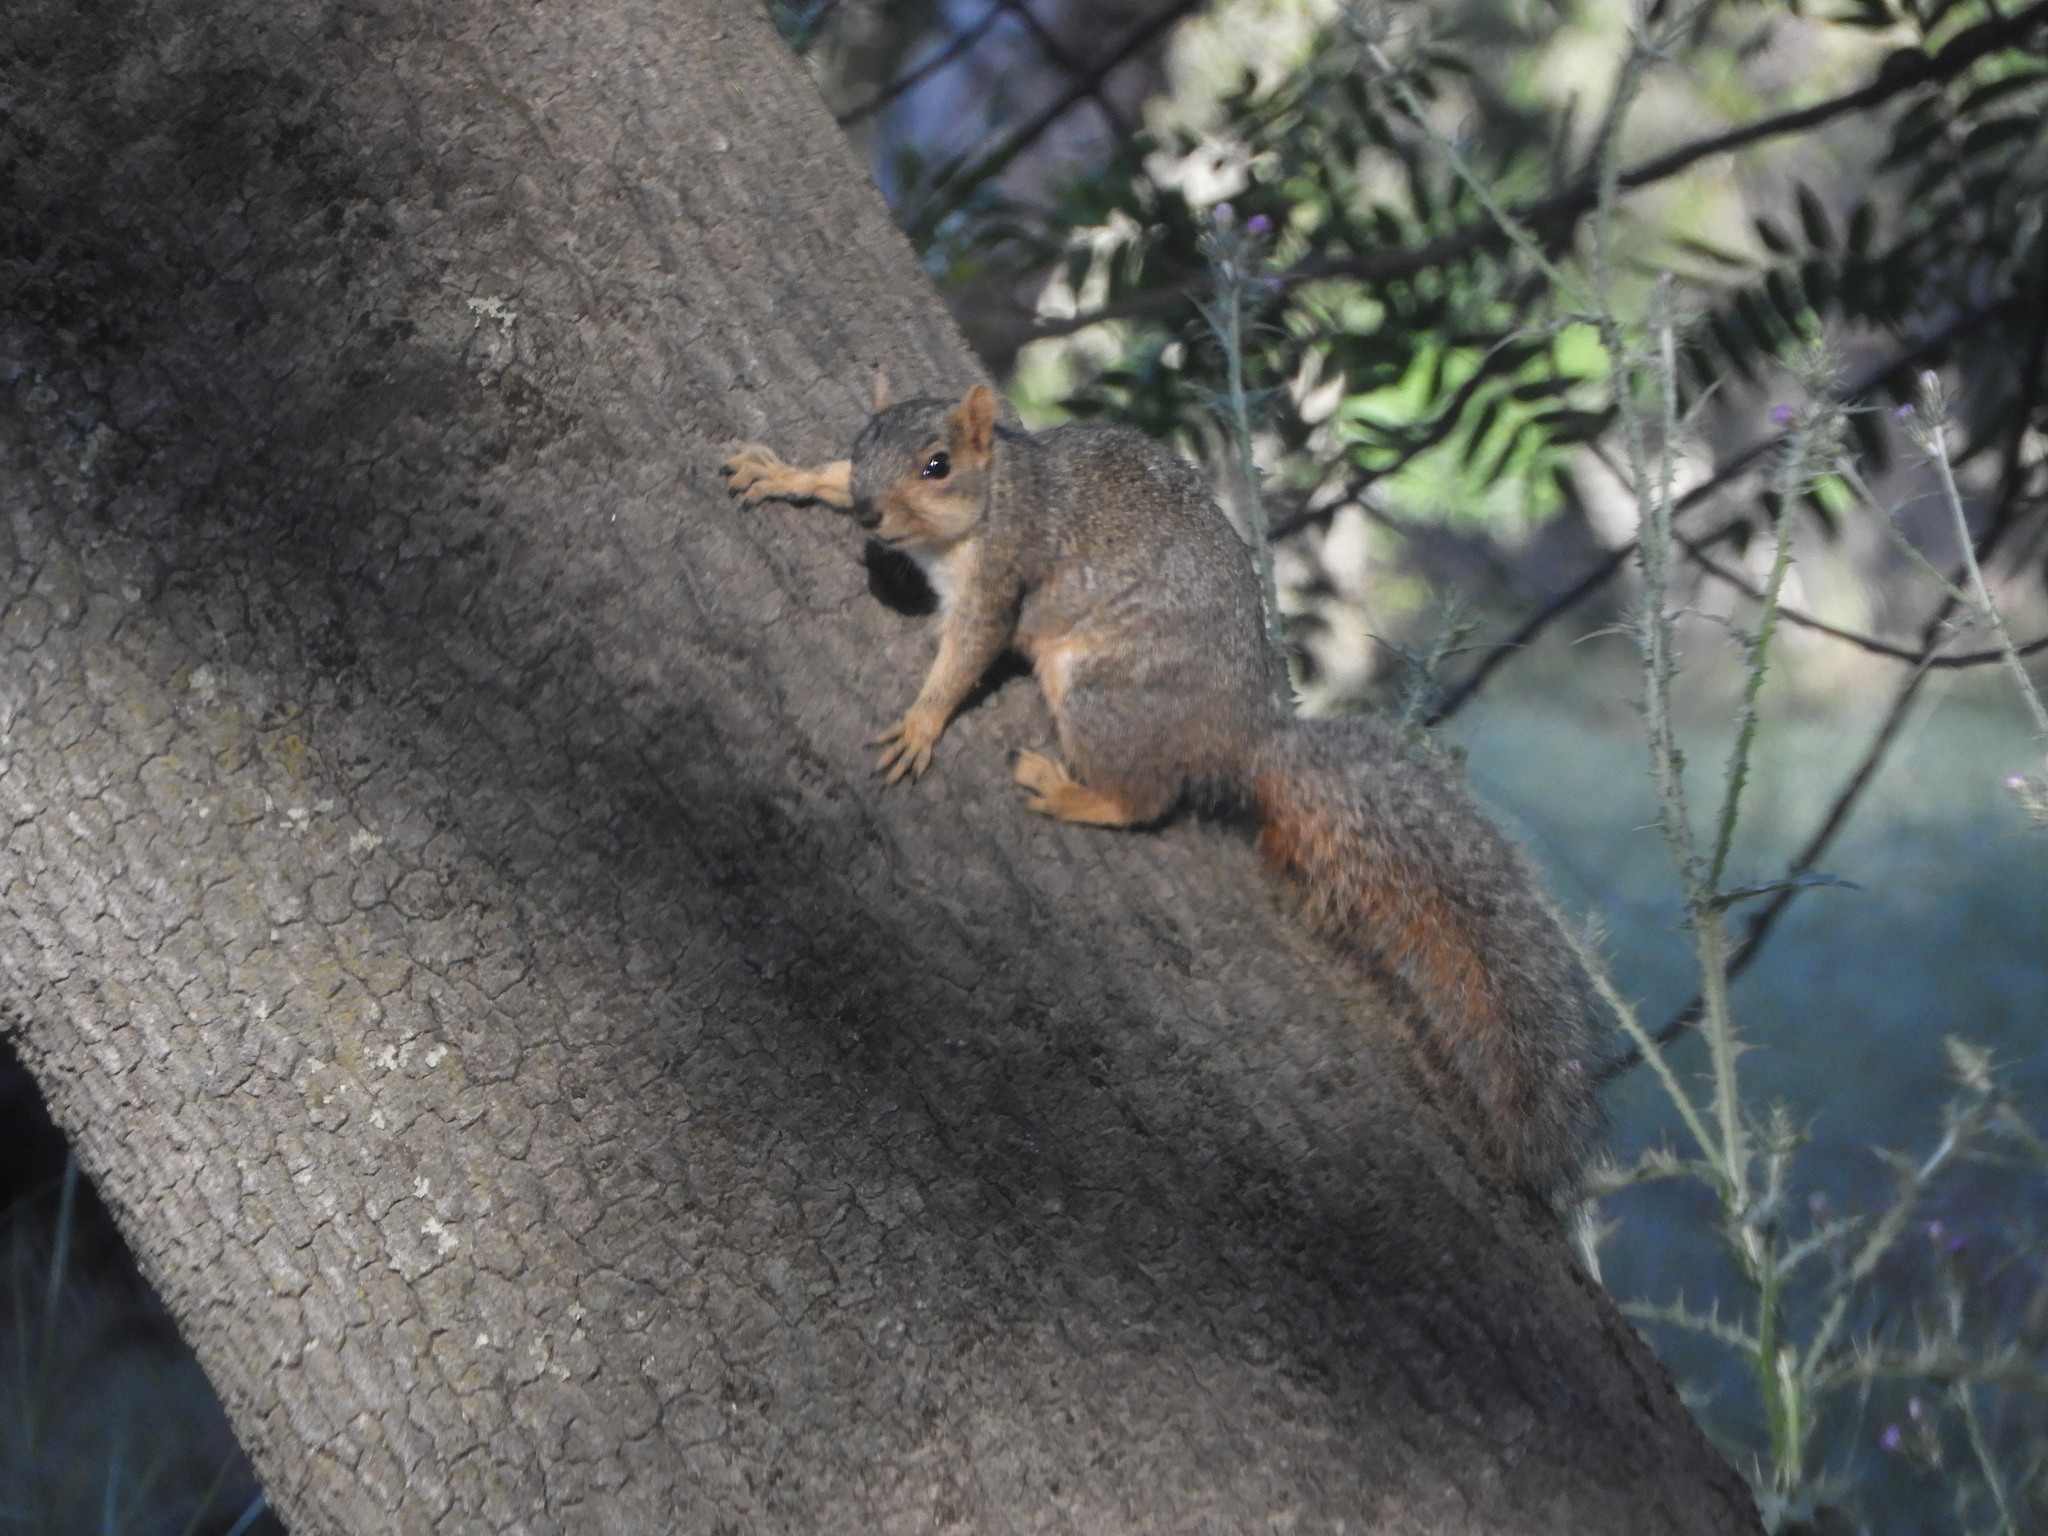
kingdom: Animalia
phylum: Chordata
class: Mammalia
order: Rodentia
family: Sciuridae
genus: Sciurus
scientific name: Sciurus niger
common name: Fox squirrel
